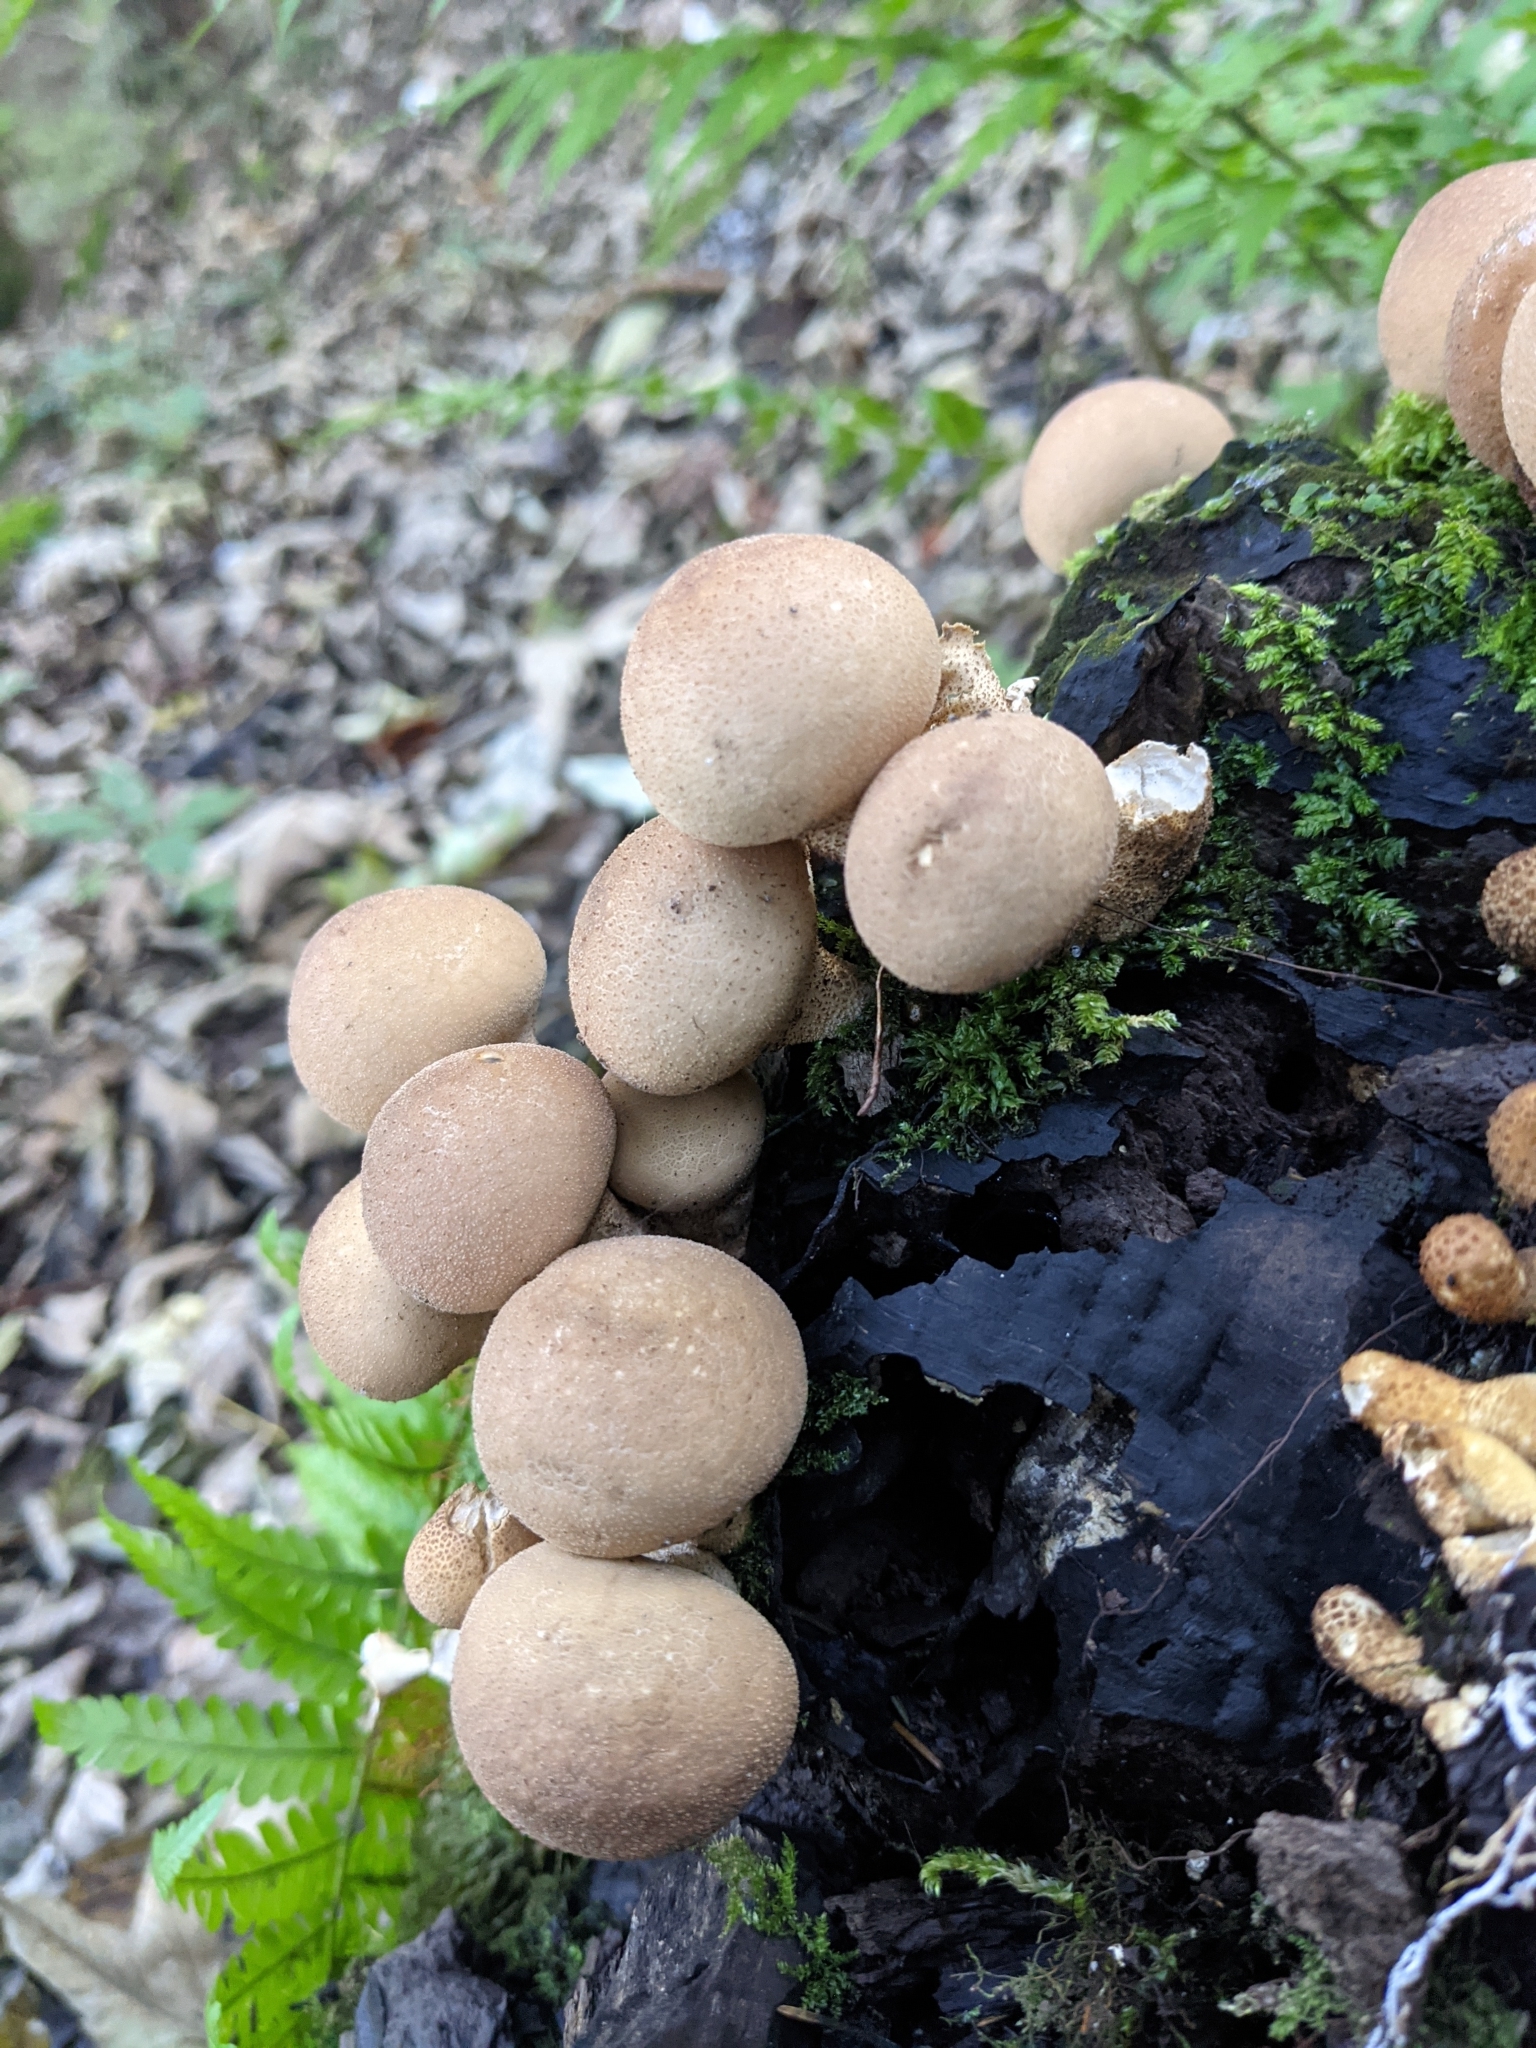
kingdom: Fungi
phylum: Basidiomycota
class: Agaricomycetes
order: Agaricales
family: Lycoperdaceae
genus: Apioperdon
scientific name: Apioperdon pyriforme
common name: Pear-shaped puffball
